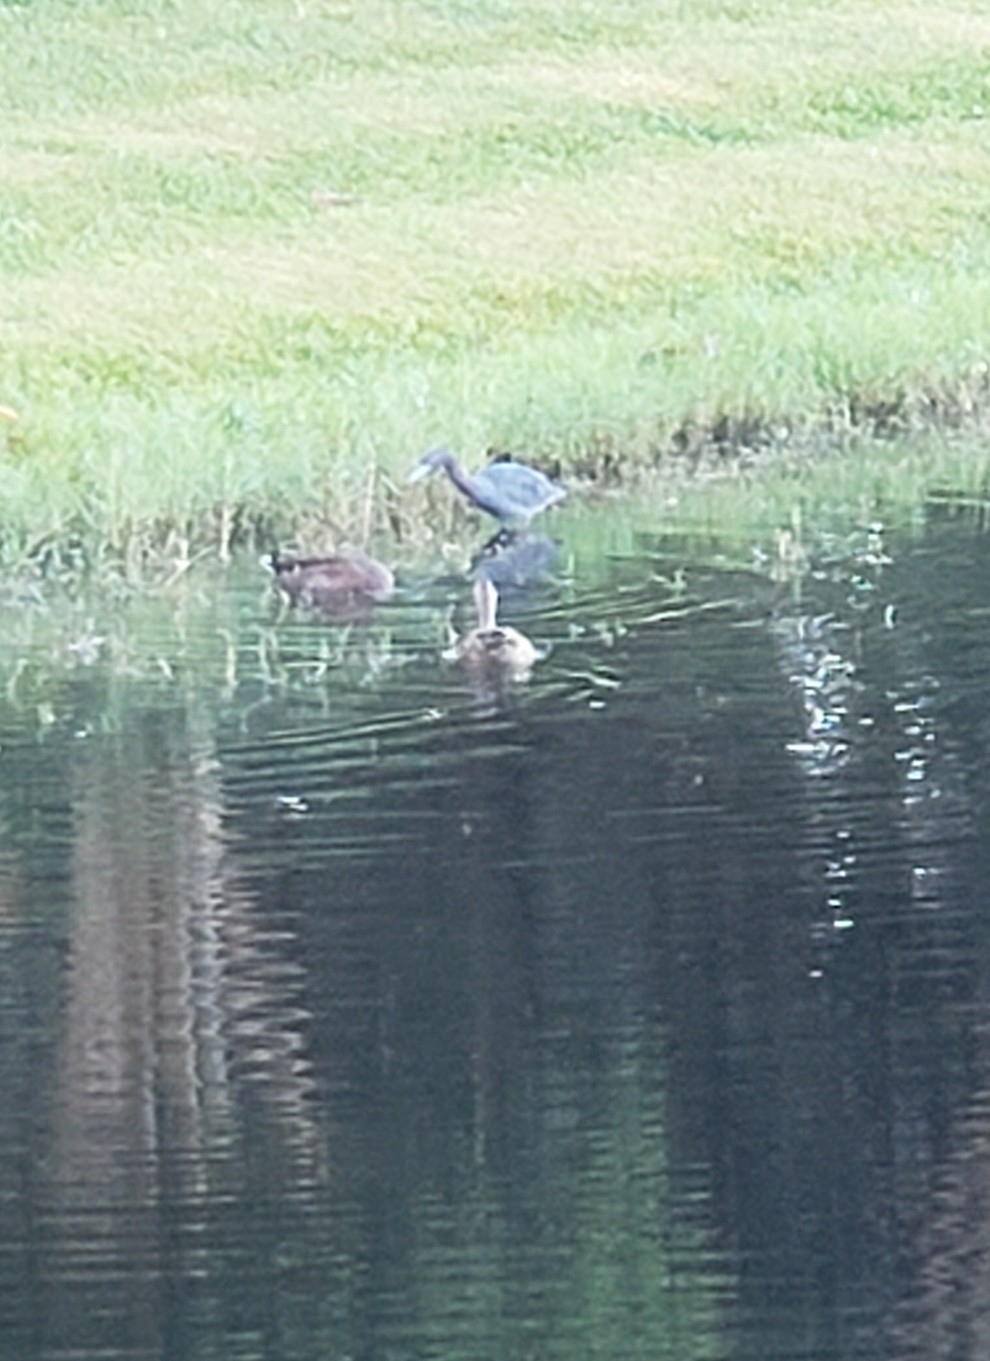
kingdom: Animalia
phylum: Chordata
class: Aves
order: Pelecaniformes
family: Ardeidae
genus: Egretta
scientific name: Egretta caerulea
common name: Little blue heron
